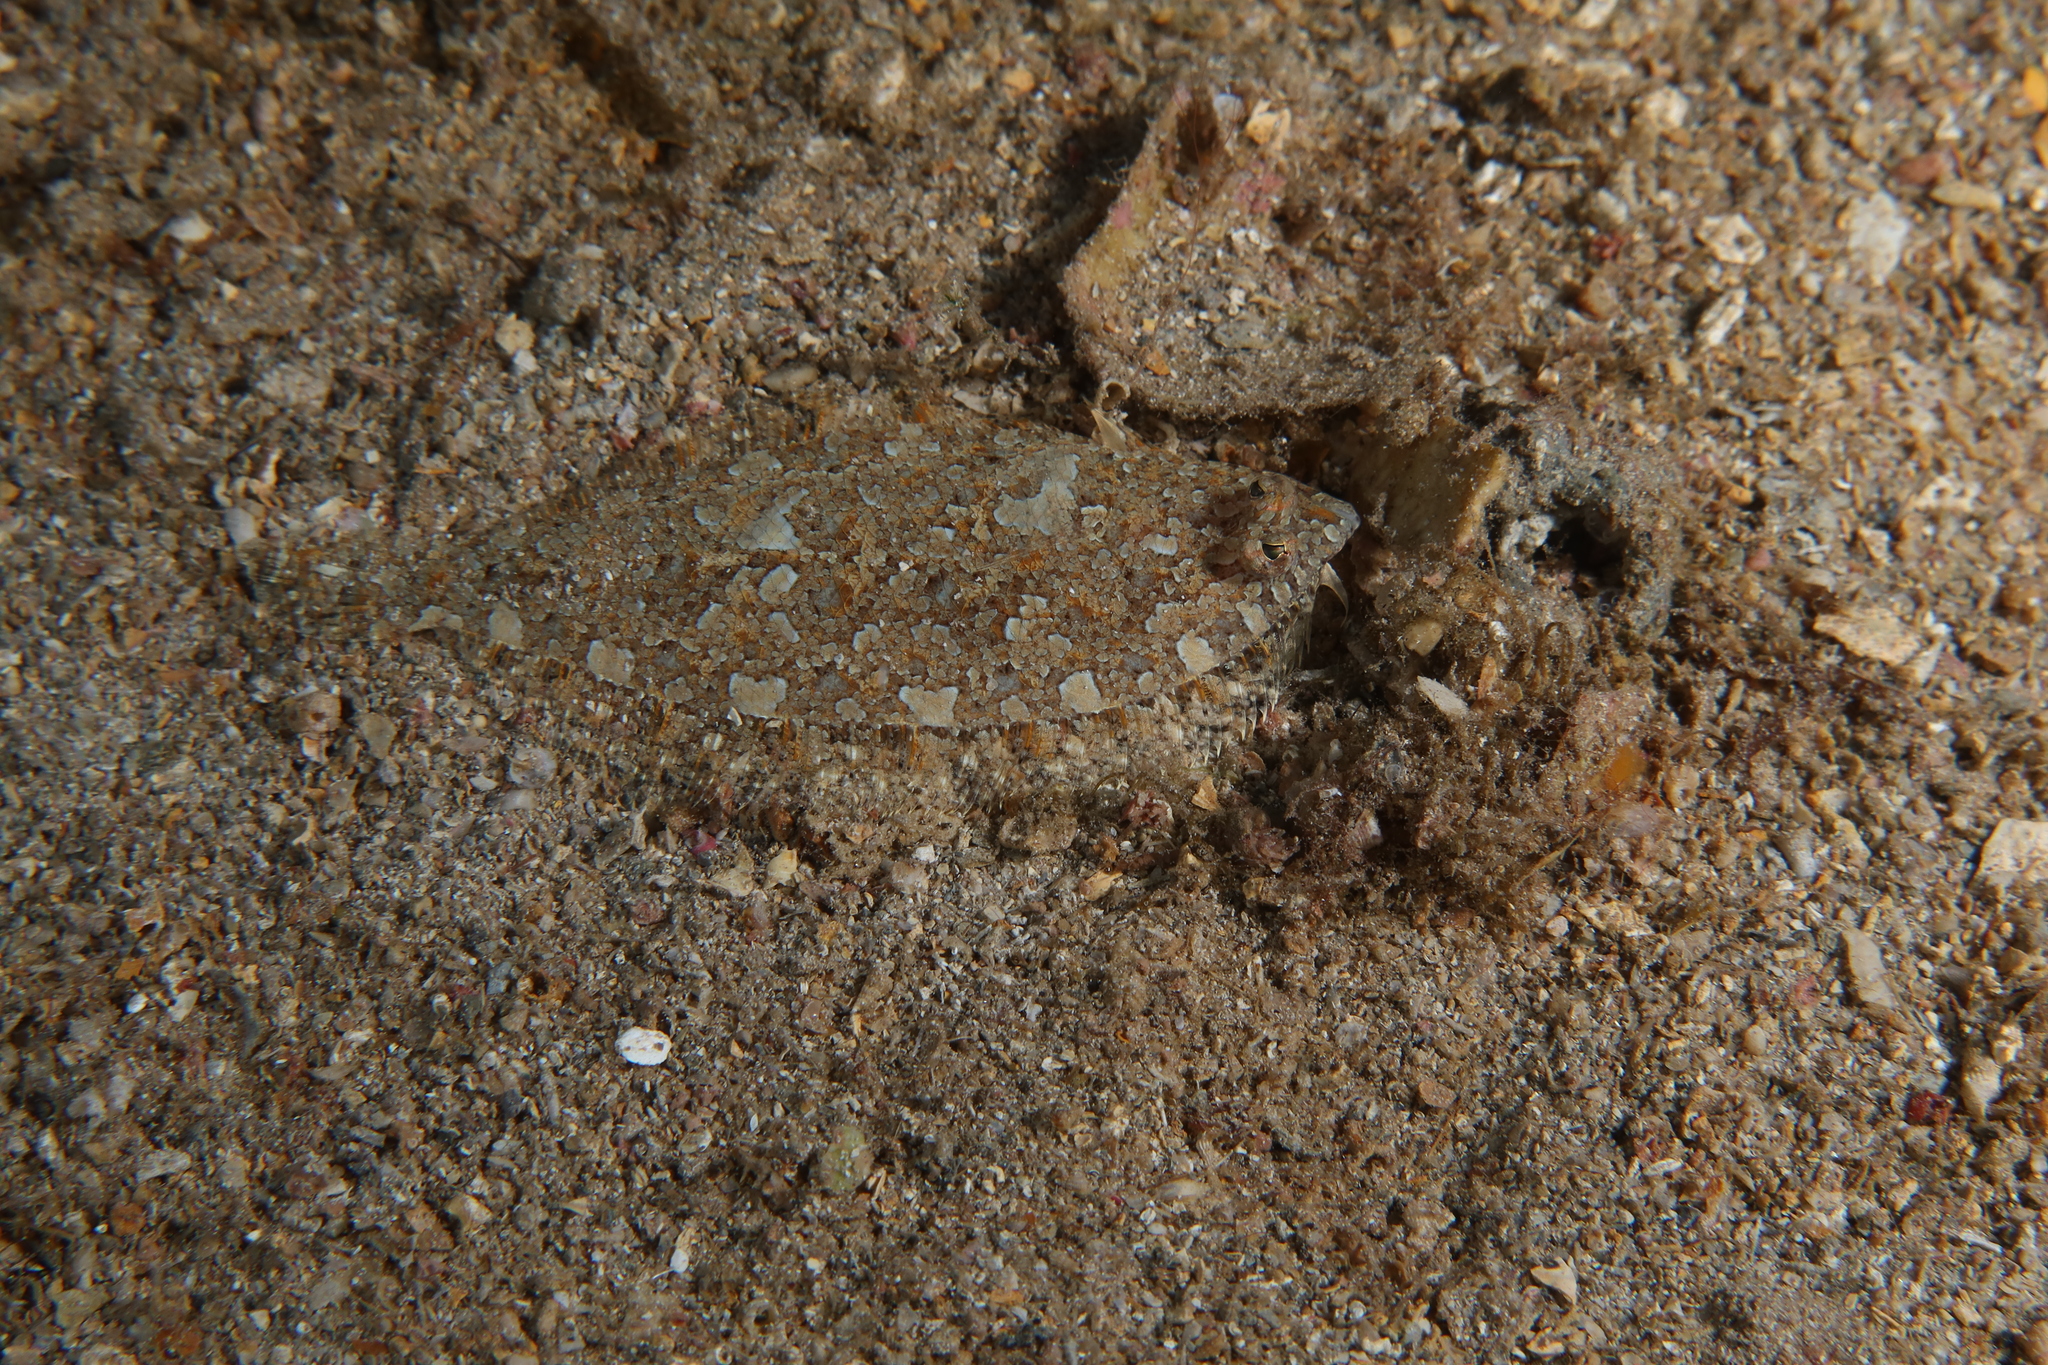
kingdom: Animalia
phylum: Chordata
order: Pleuronectiformes
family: Bothidae
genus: Arnoglossus
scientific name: Arnoglossus thori
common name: Thor's scaldfish
